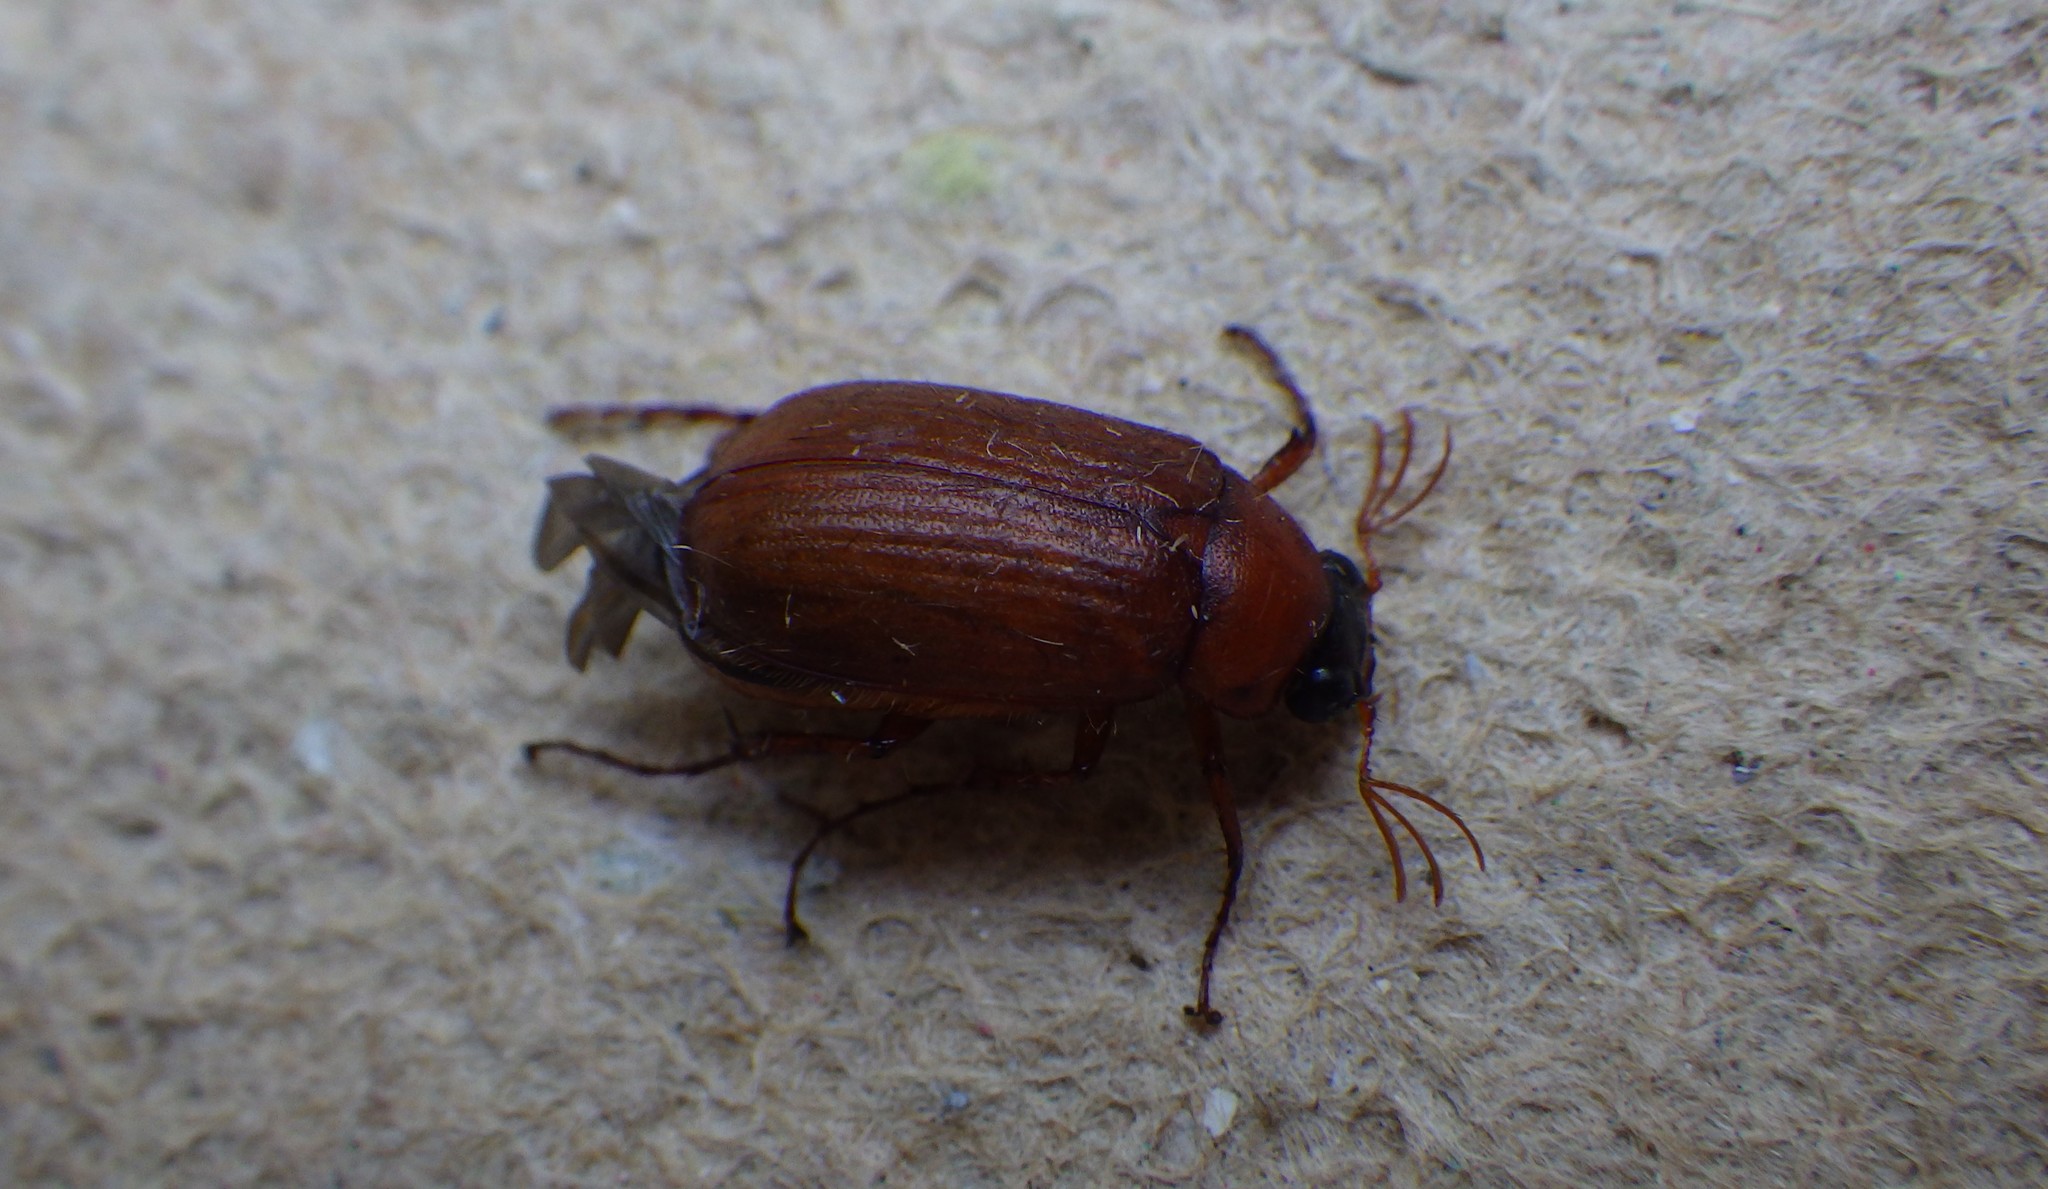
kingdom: Animalia
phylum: Arthropoda
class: Insecta
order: Coleoptera
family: Scarabaeidae
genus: Serica
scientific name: Serica brunnea
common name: Brown chafer
